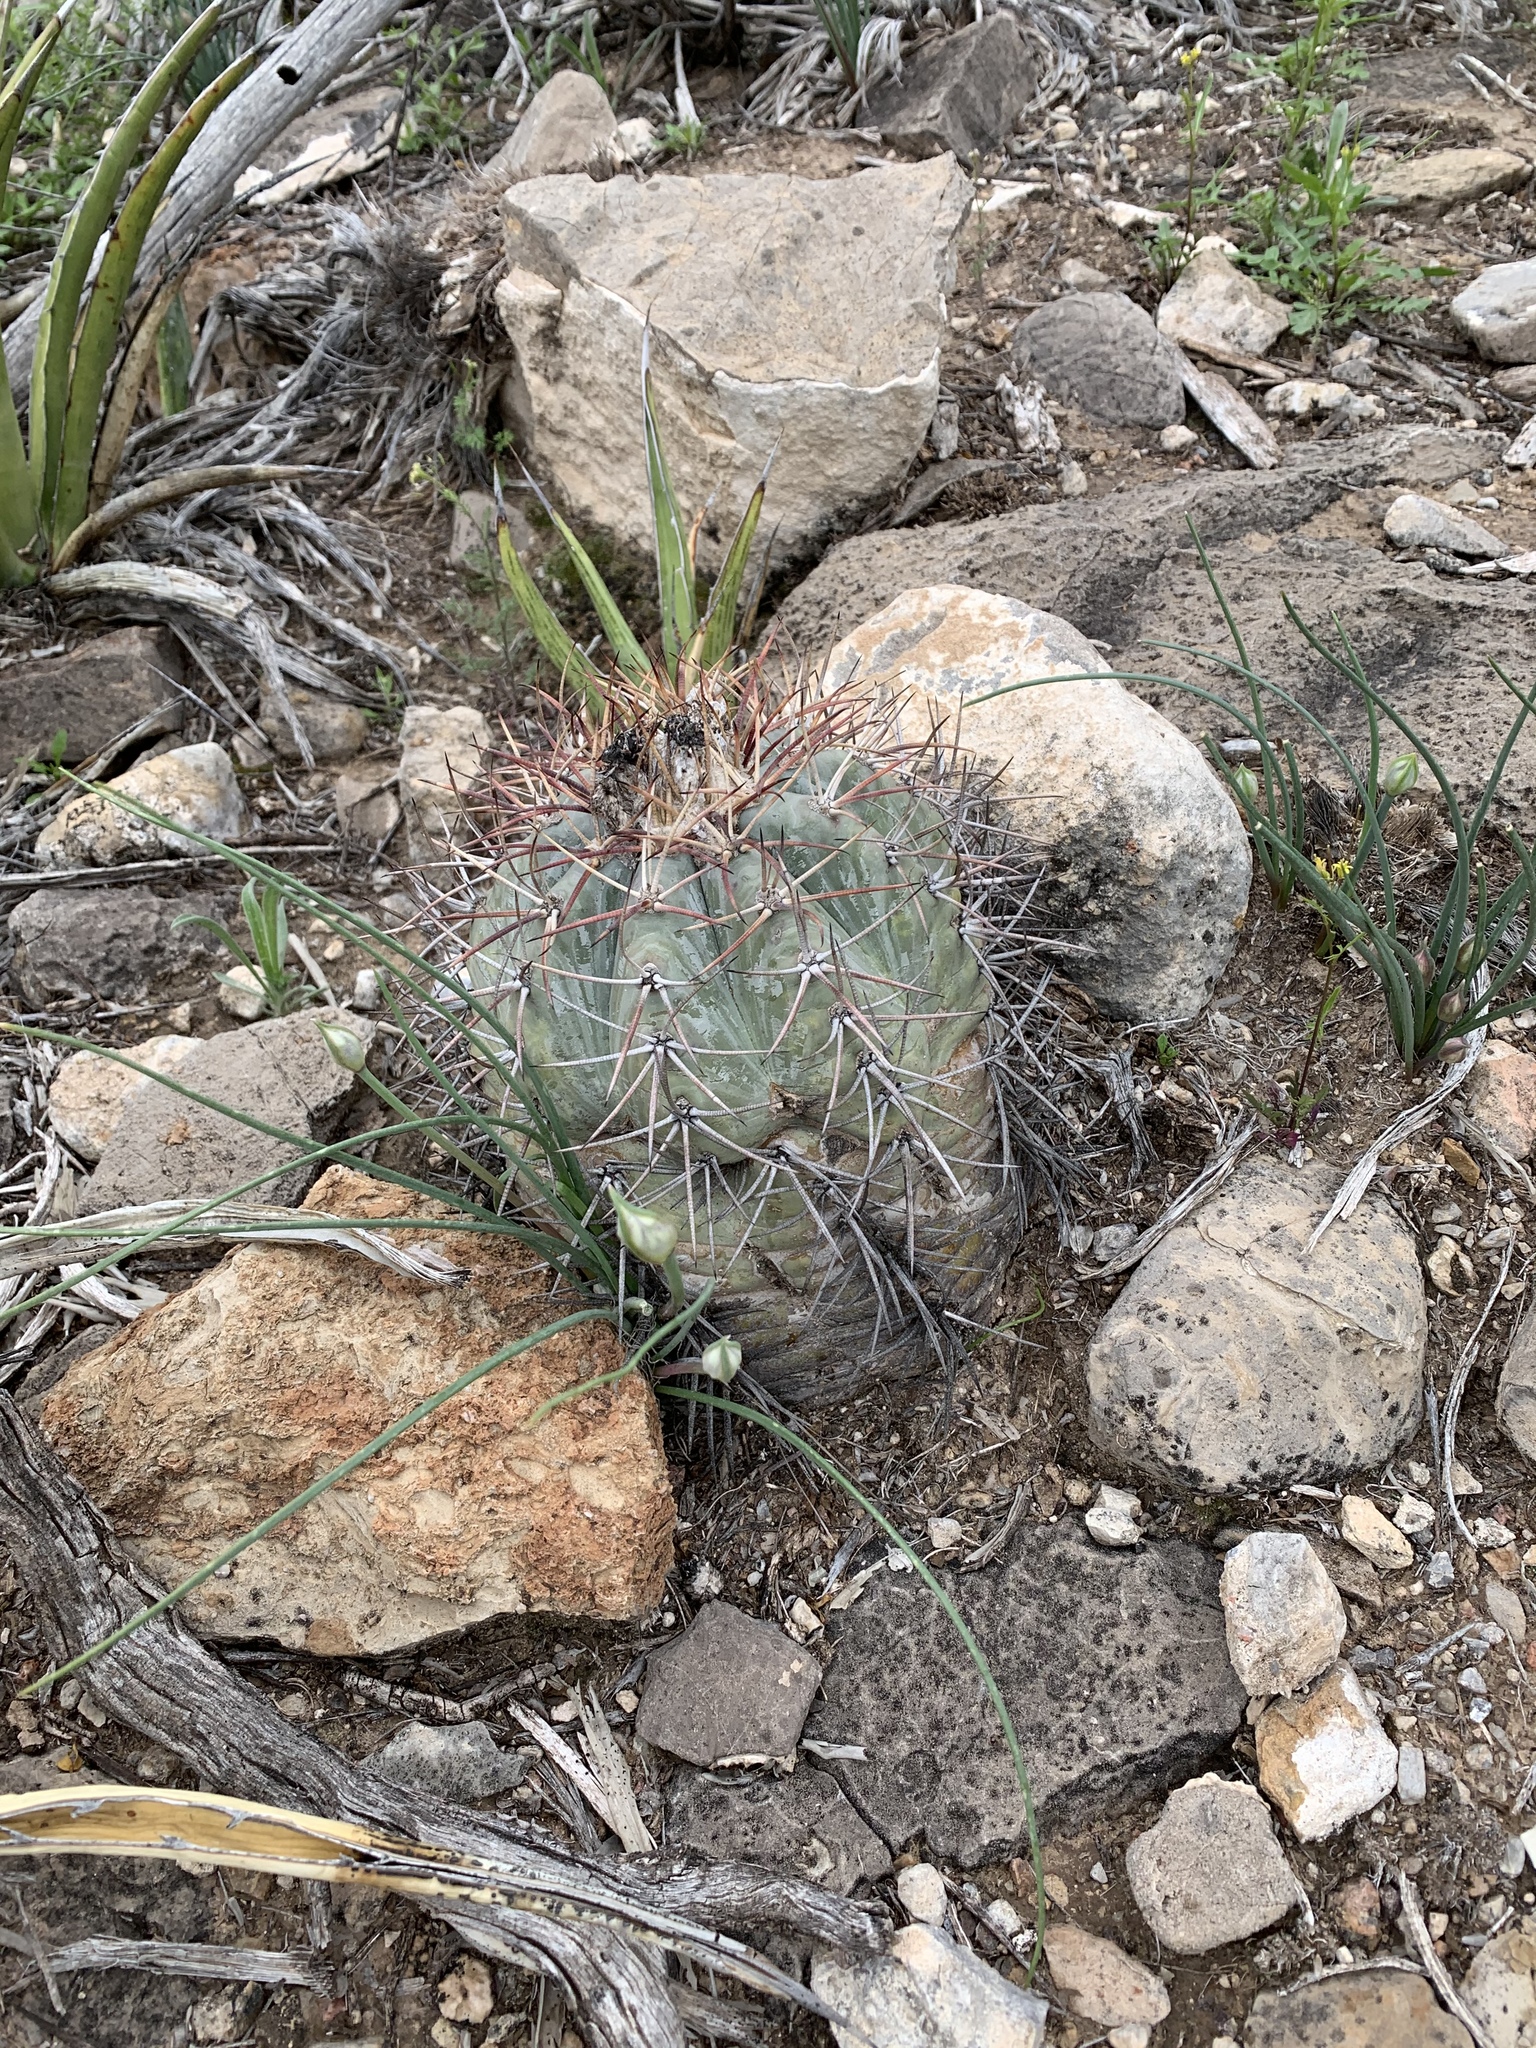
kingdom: Plantae
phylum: Tracheophyta
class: Magnoliopsida
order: Caryophyllales
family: Cactaceae
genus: Echinocactus
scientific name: Echinocactus horizonthalonius
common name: Devilshead
